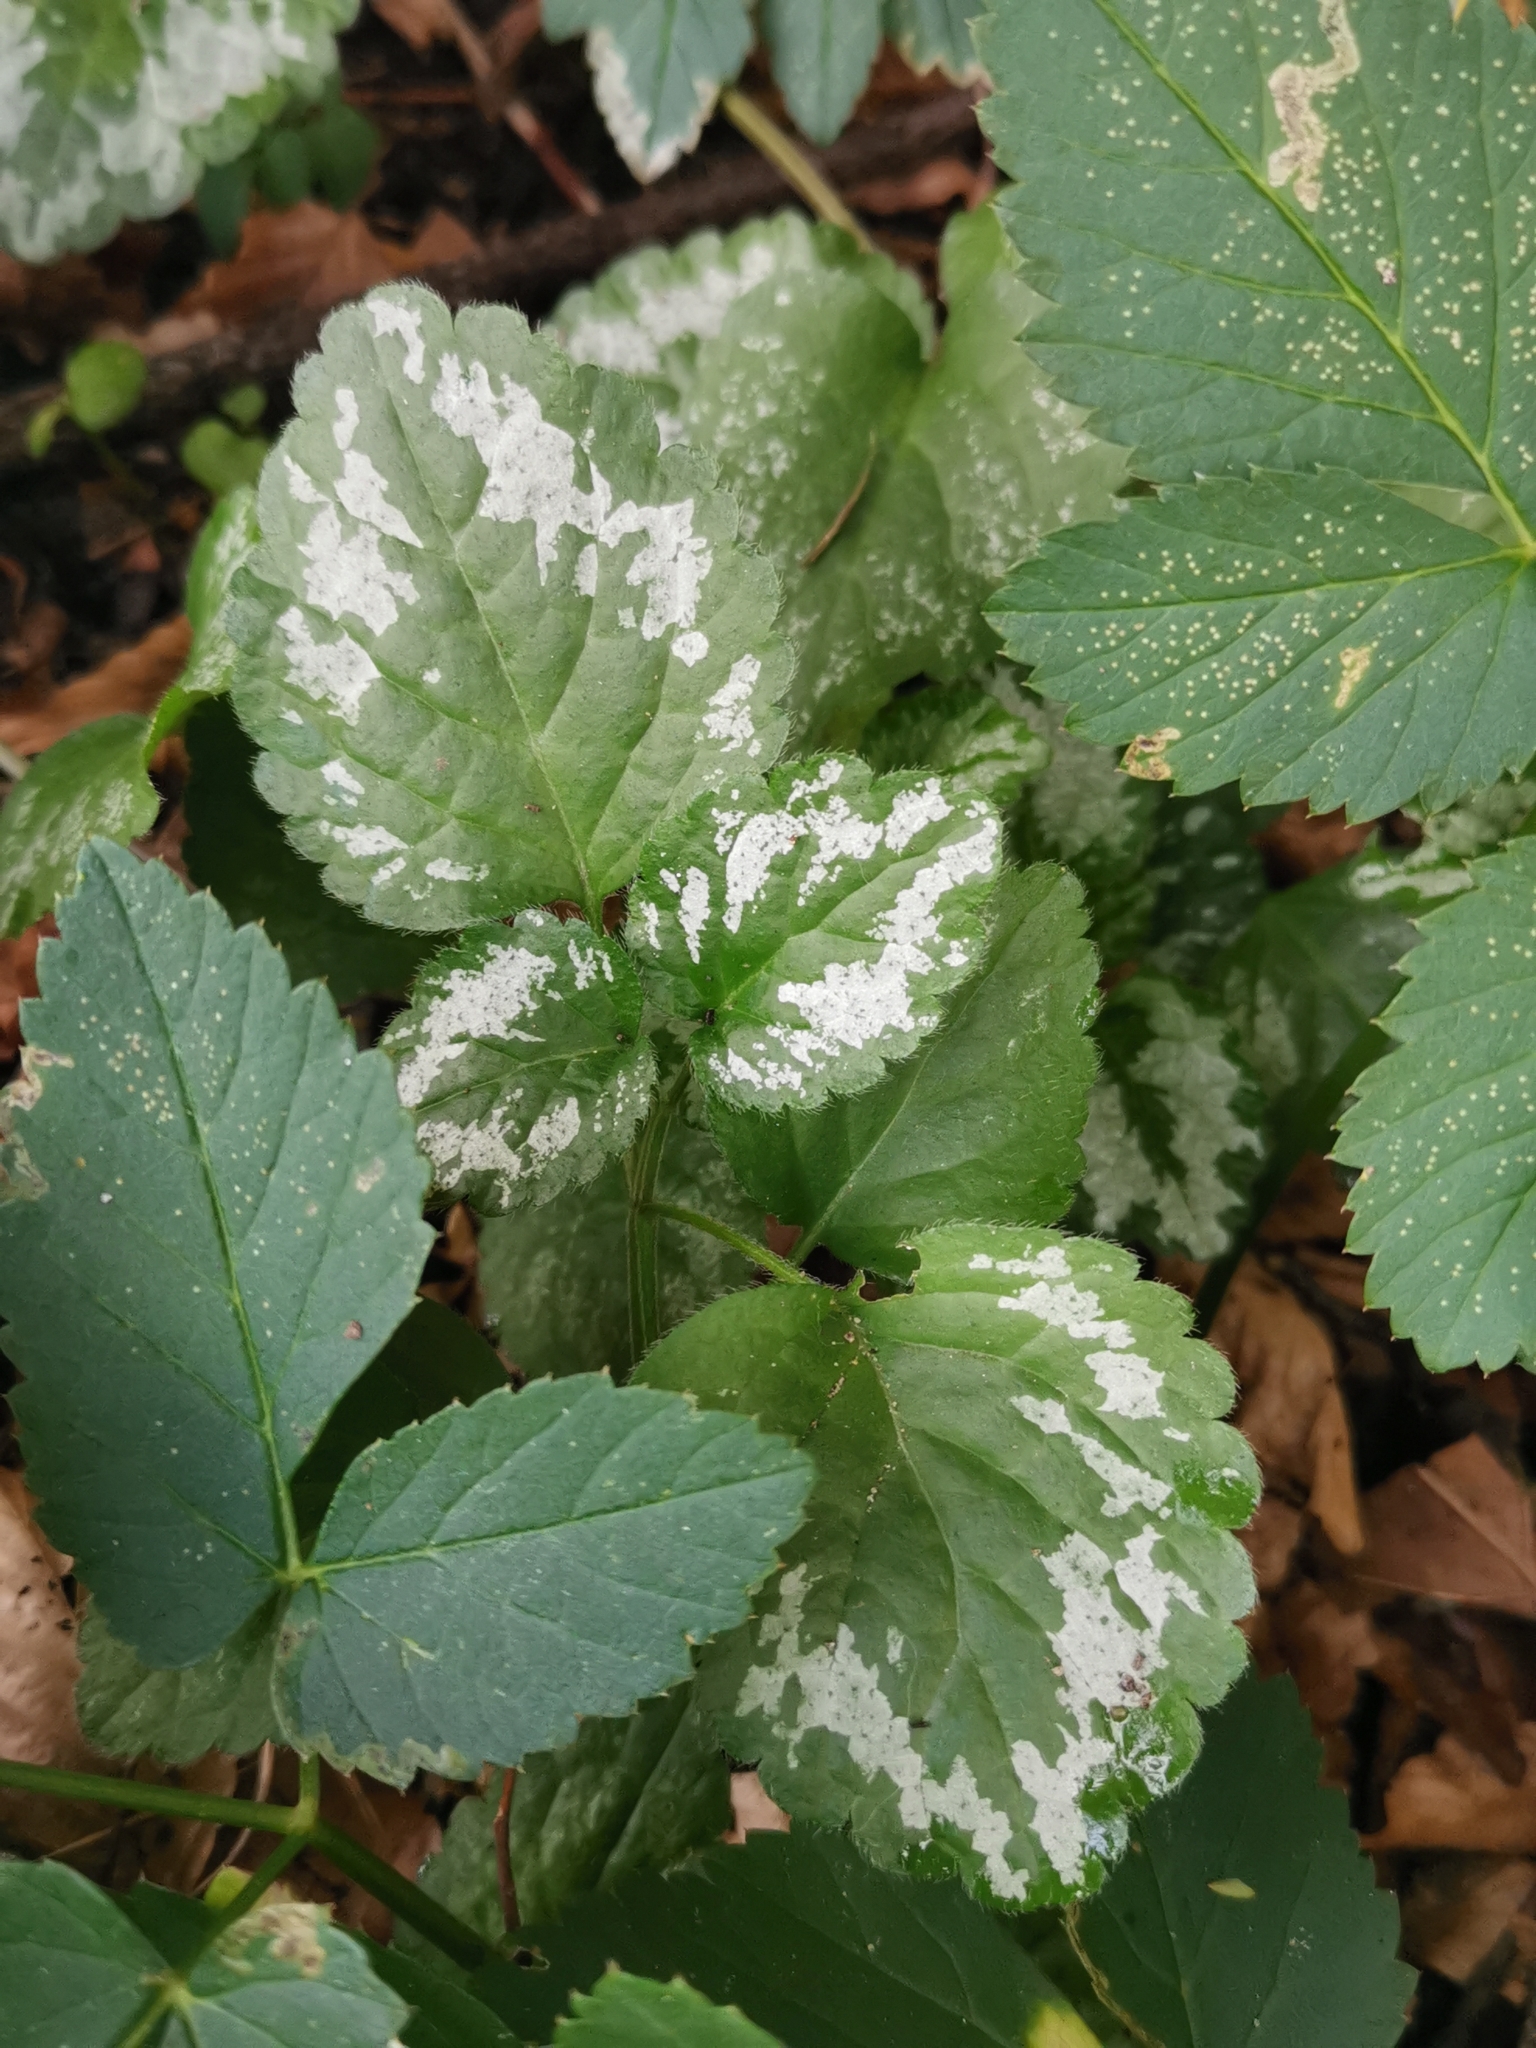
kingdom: Plantae
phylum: Tracheophyta
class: Magnoliopsida
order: Lamiales
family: Lamiaceae
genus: Lamium
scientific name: Lamium galeobdolon
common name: Yellow archangel
